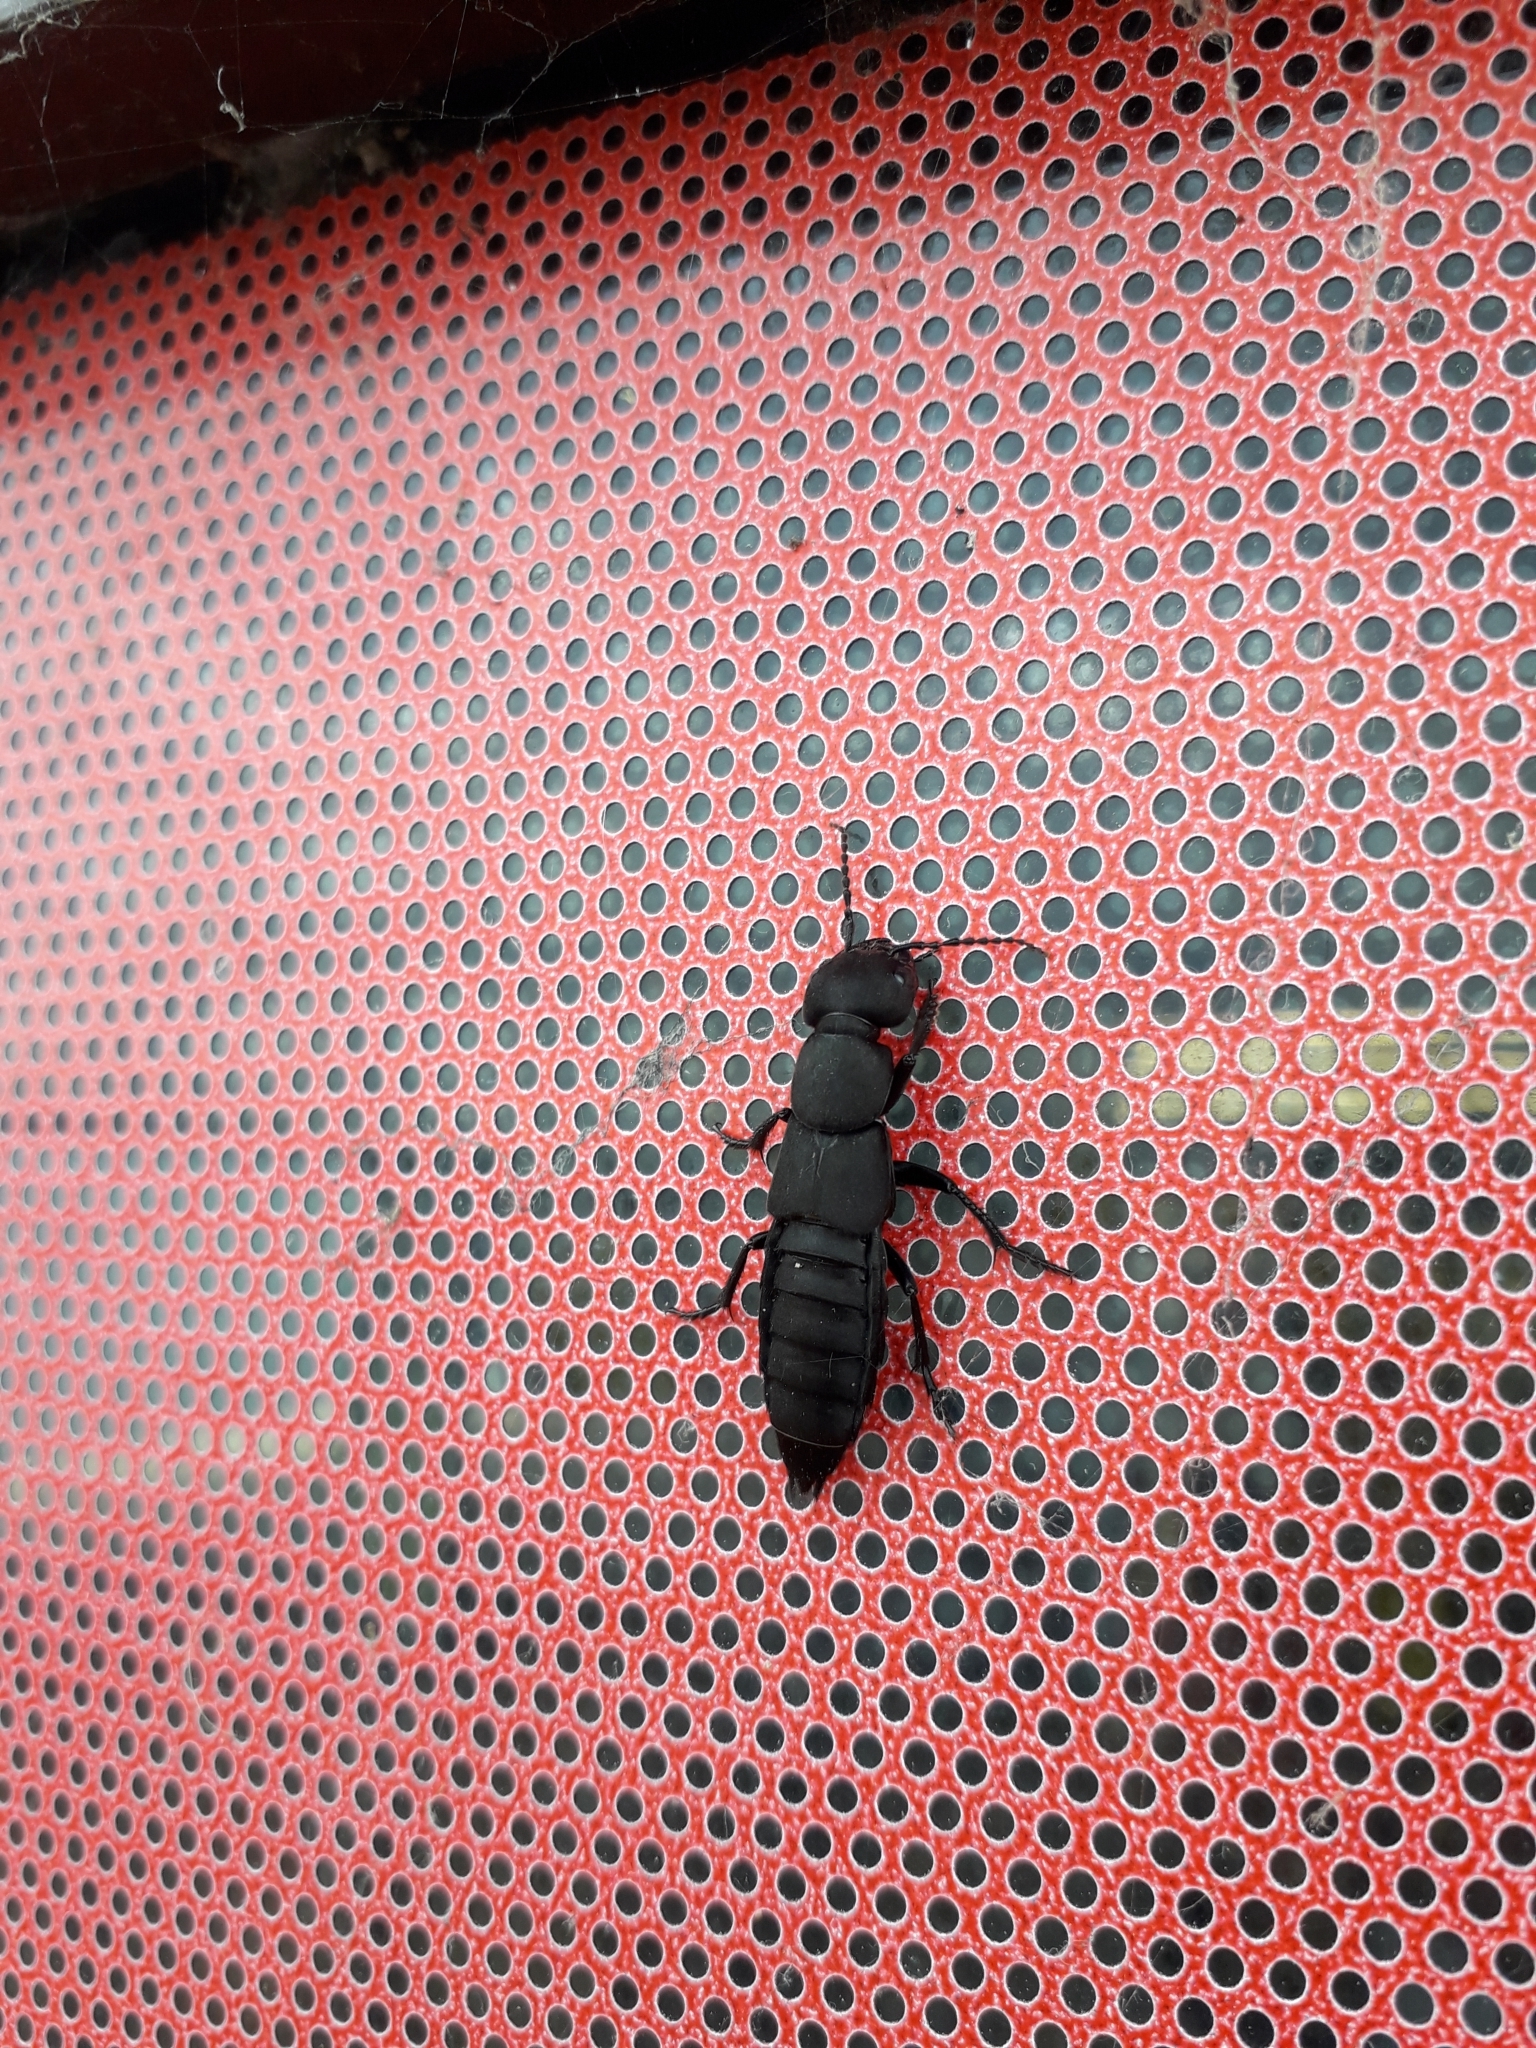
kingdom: Animalia
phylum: Arthropoda
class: Insecta
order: Coleoptera
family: Staphylinidae
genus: Ocypus
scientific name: Ocypus olens
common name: Devil's coach-horse
